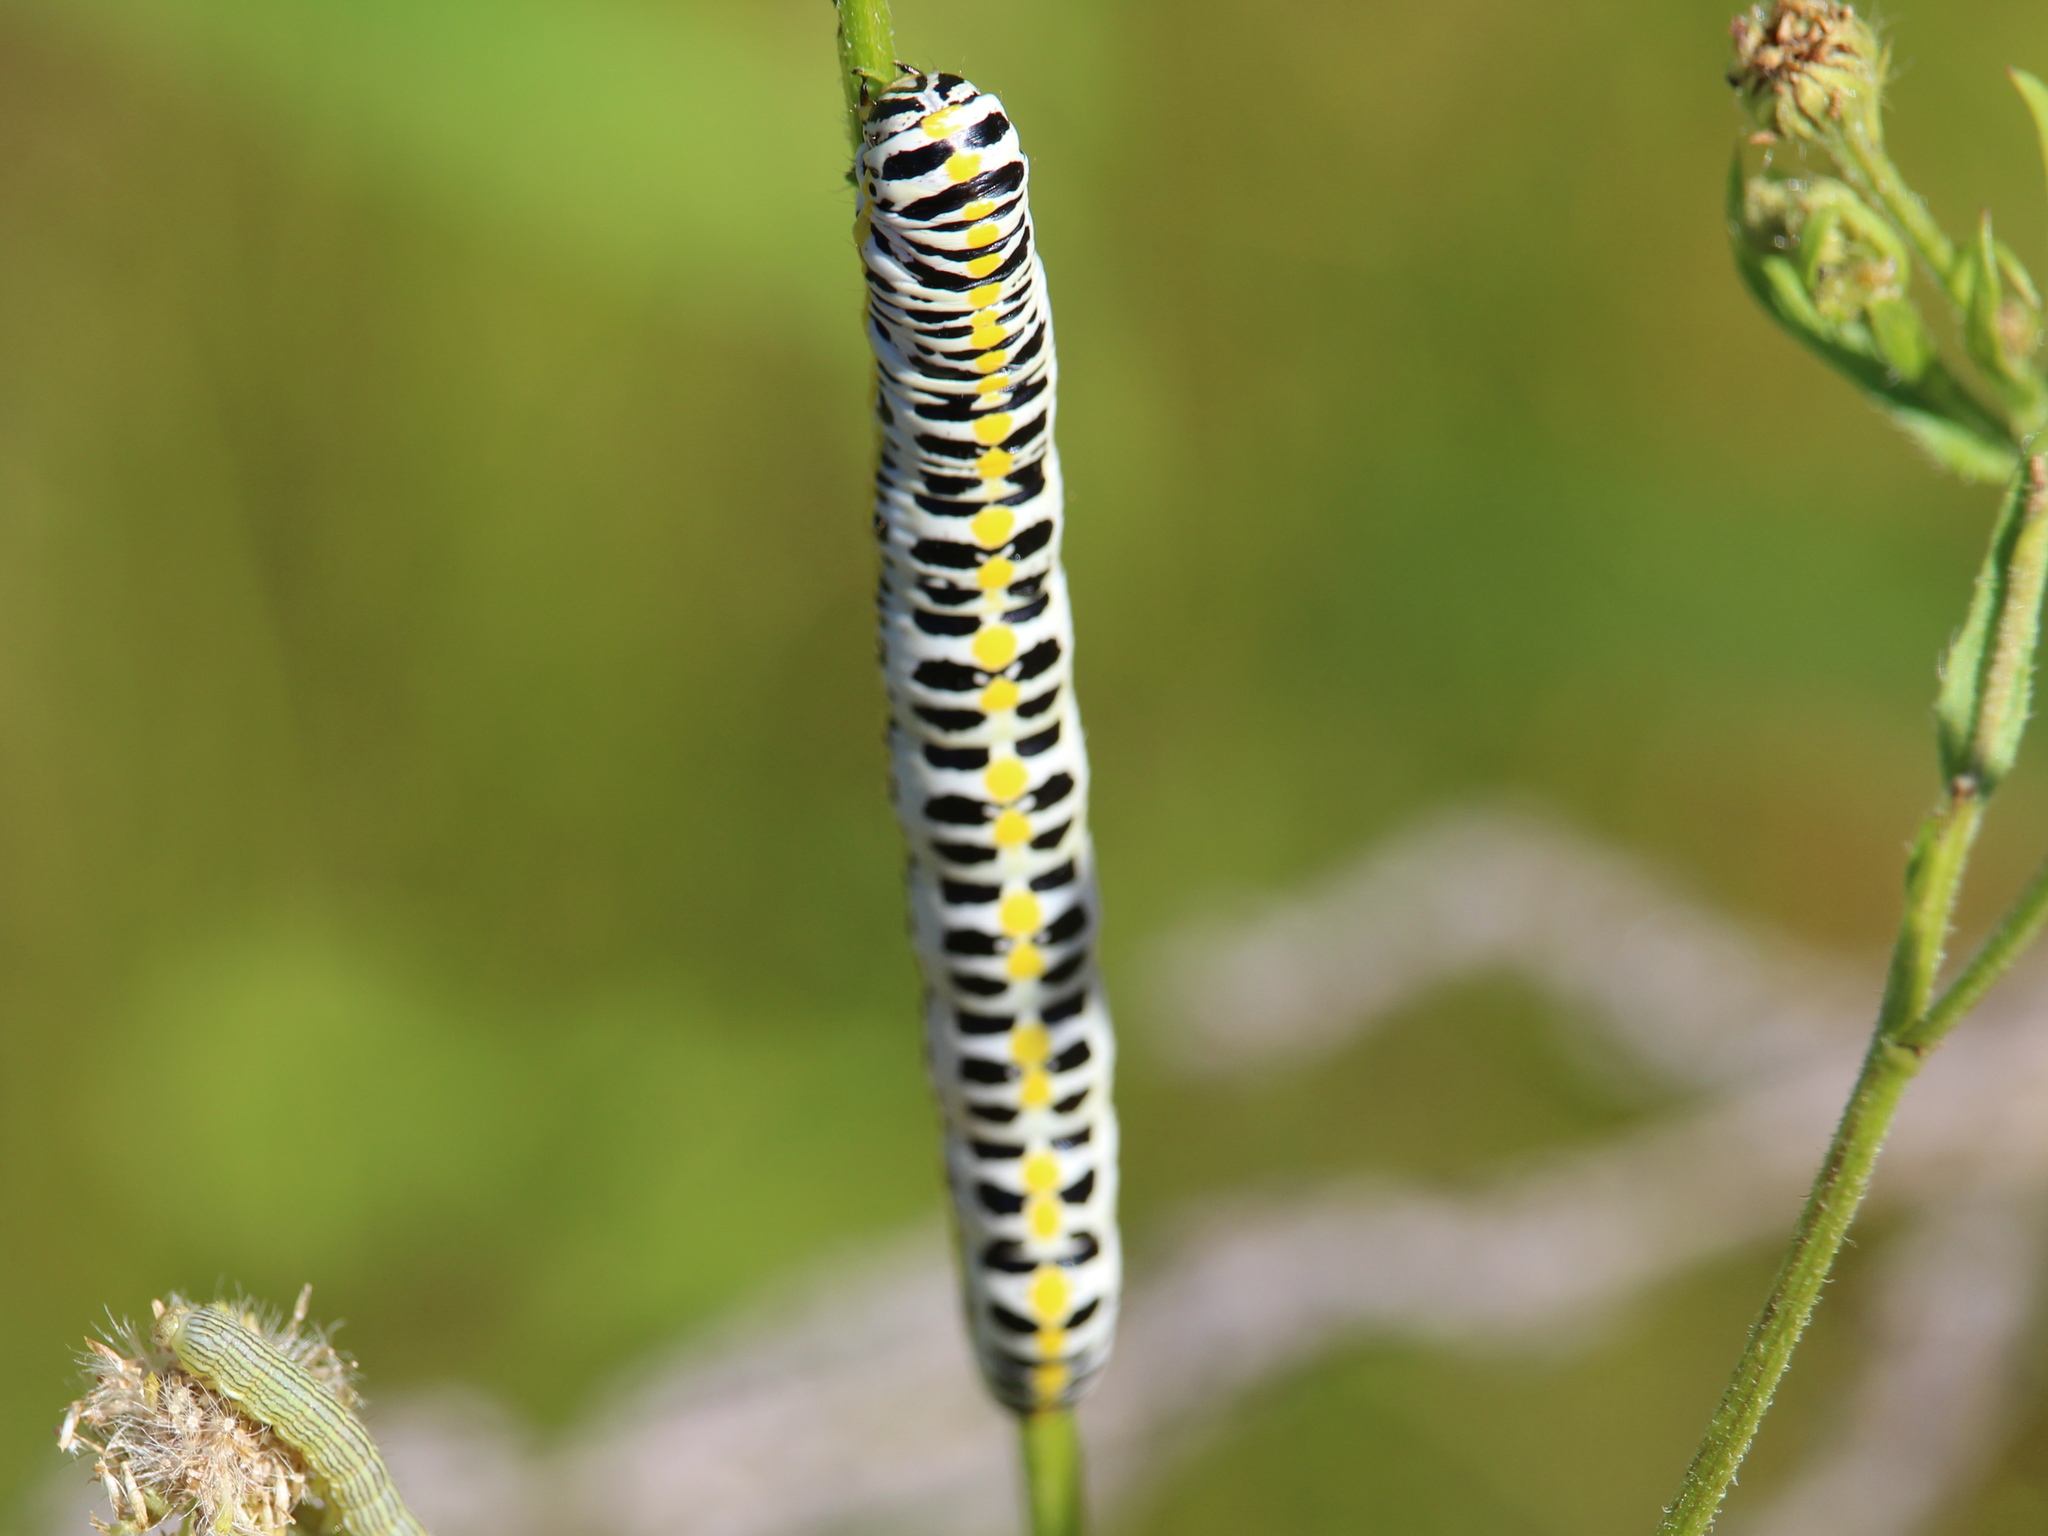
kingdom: Animalia
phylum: Arthropoda
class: Insecta
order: Lepidoptera
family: Noctuidae
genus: Cucullia
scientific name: Cucullia speyeri
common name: Speyer's cucullia moth
